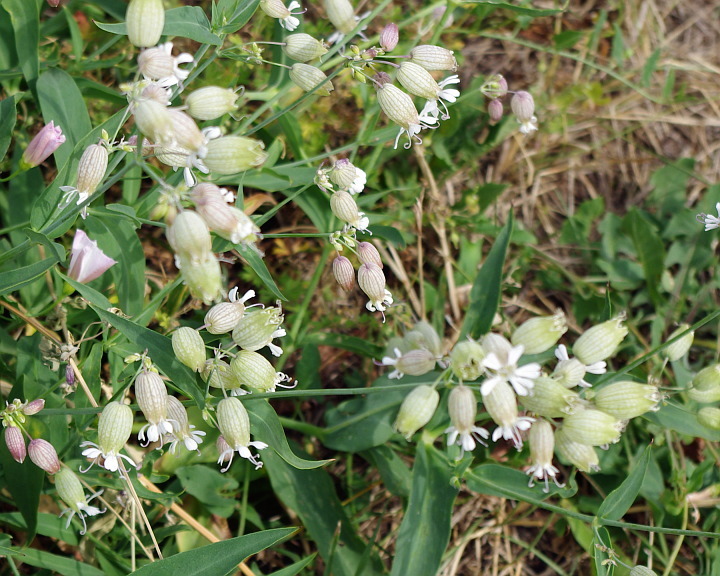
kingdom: Plantae
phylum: Tracheophyta
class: Magnoliopsida
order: Caryophyllales
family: Caryophyllaceae
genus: Silene
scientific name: Silene vulgaris
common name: Bladder campion
